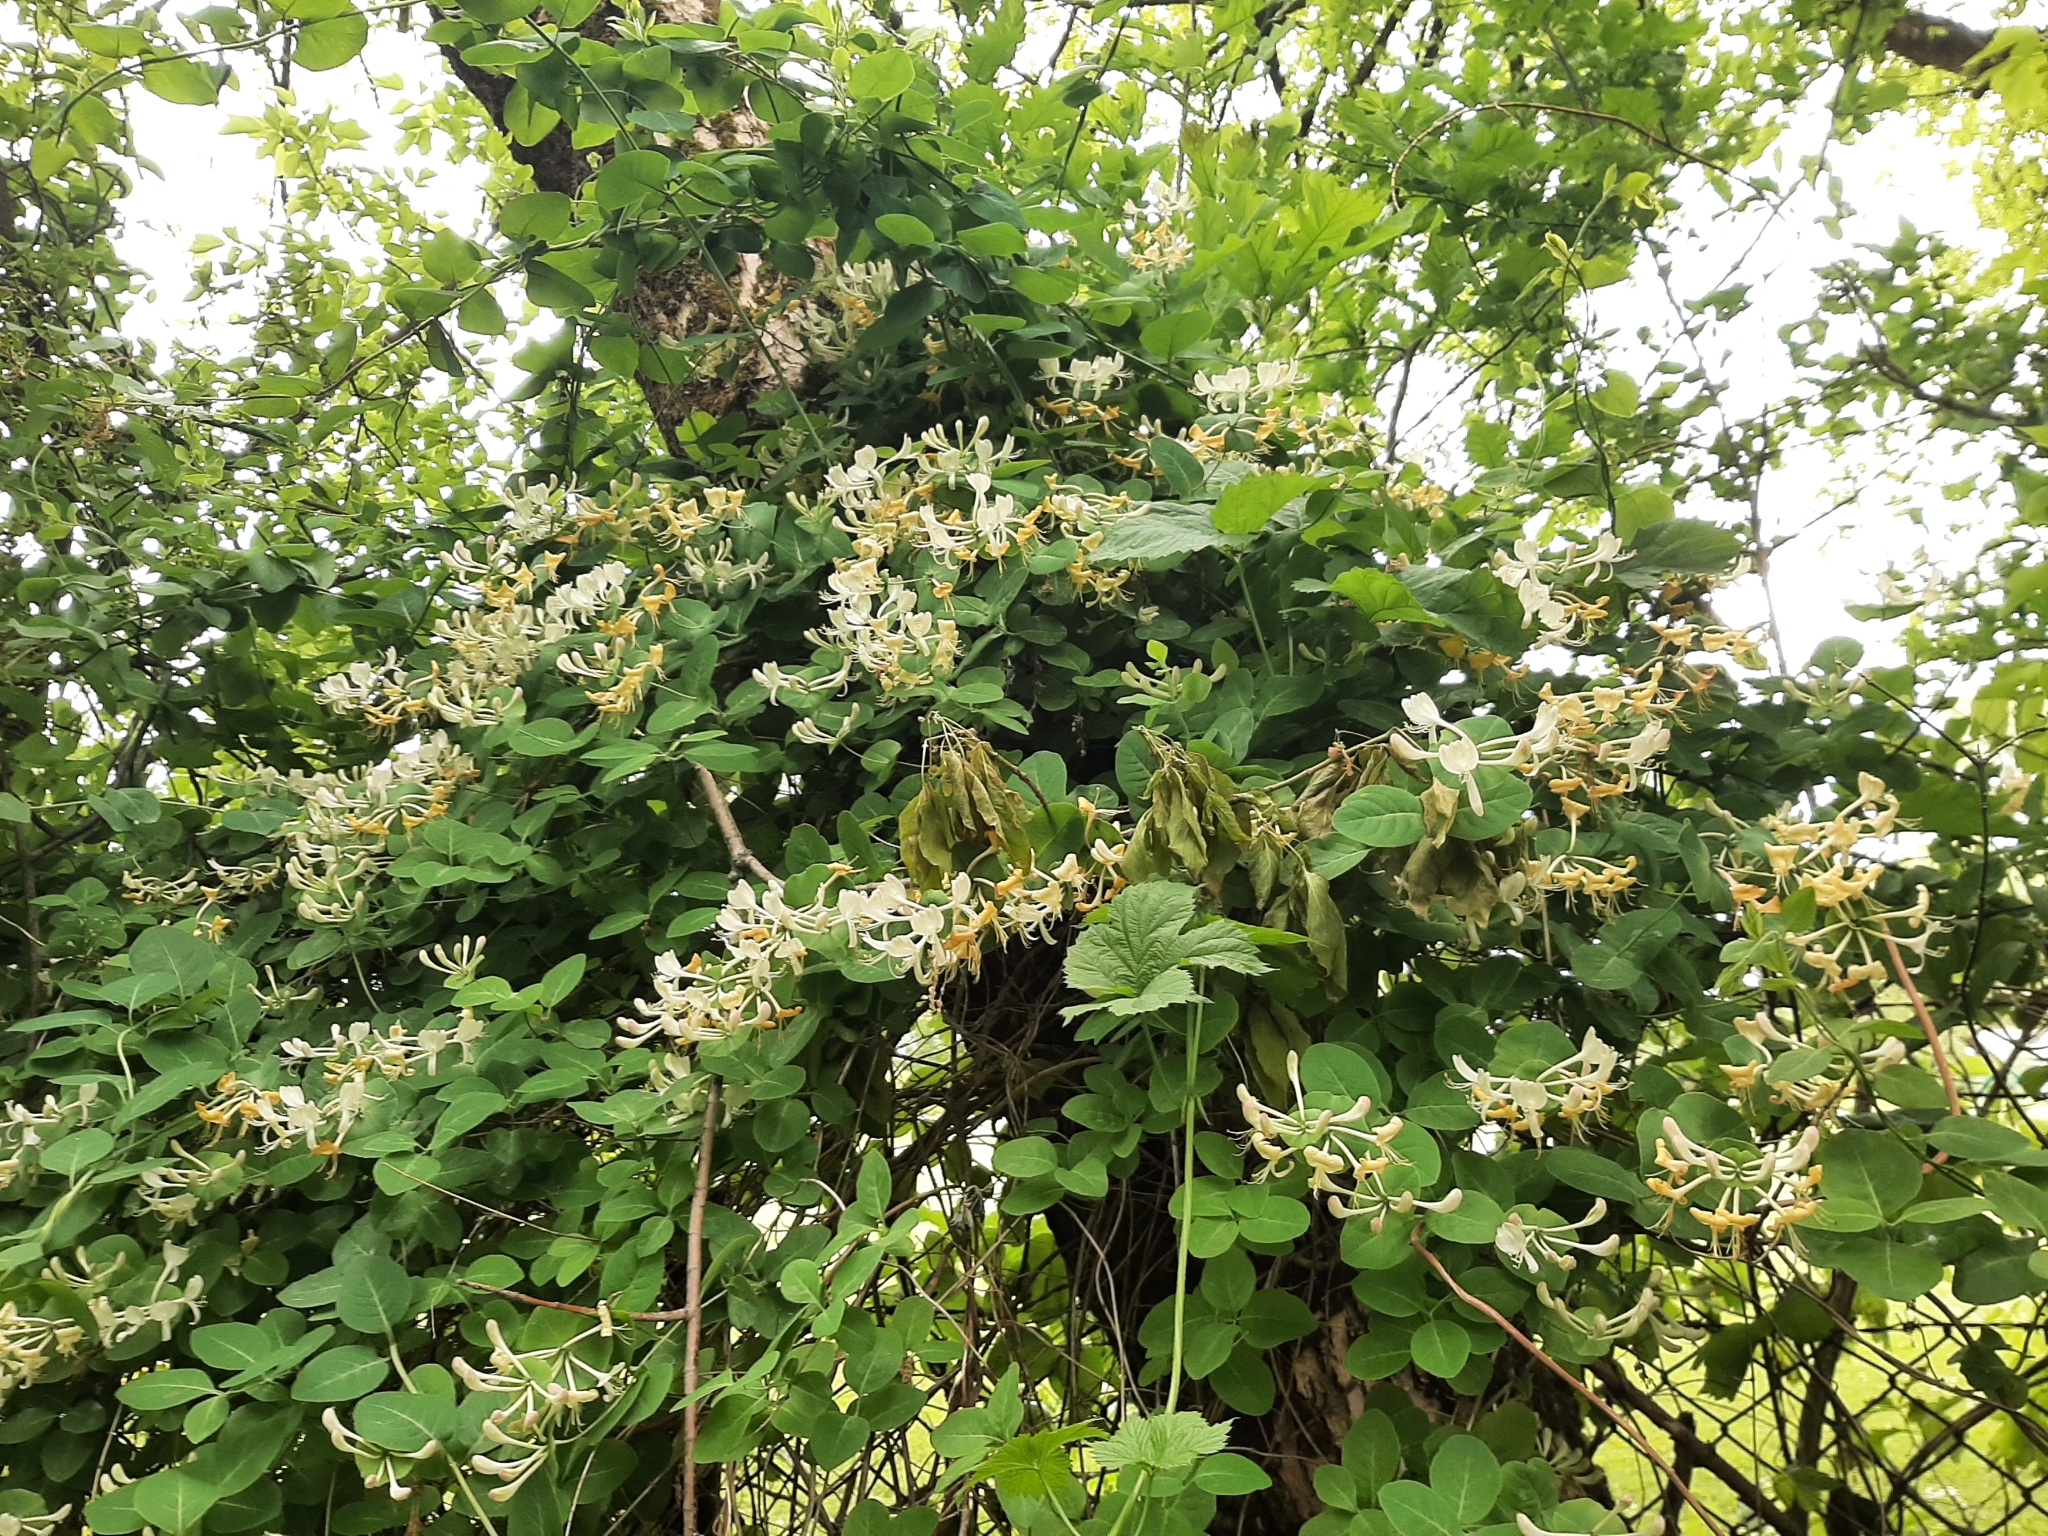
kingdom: Plantae
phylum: Tracheophyta
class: Magnoliopsida
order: Dipsacales
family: Caprifoliaceae
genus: Lonicera
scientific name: Lonicera caprifolium
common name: Perfoliate honeysuckle
